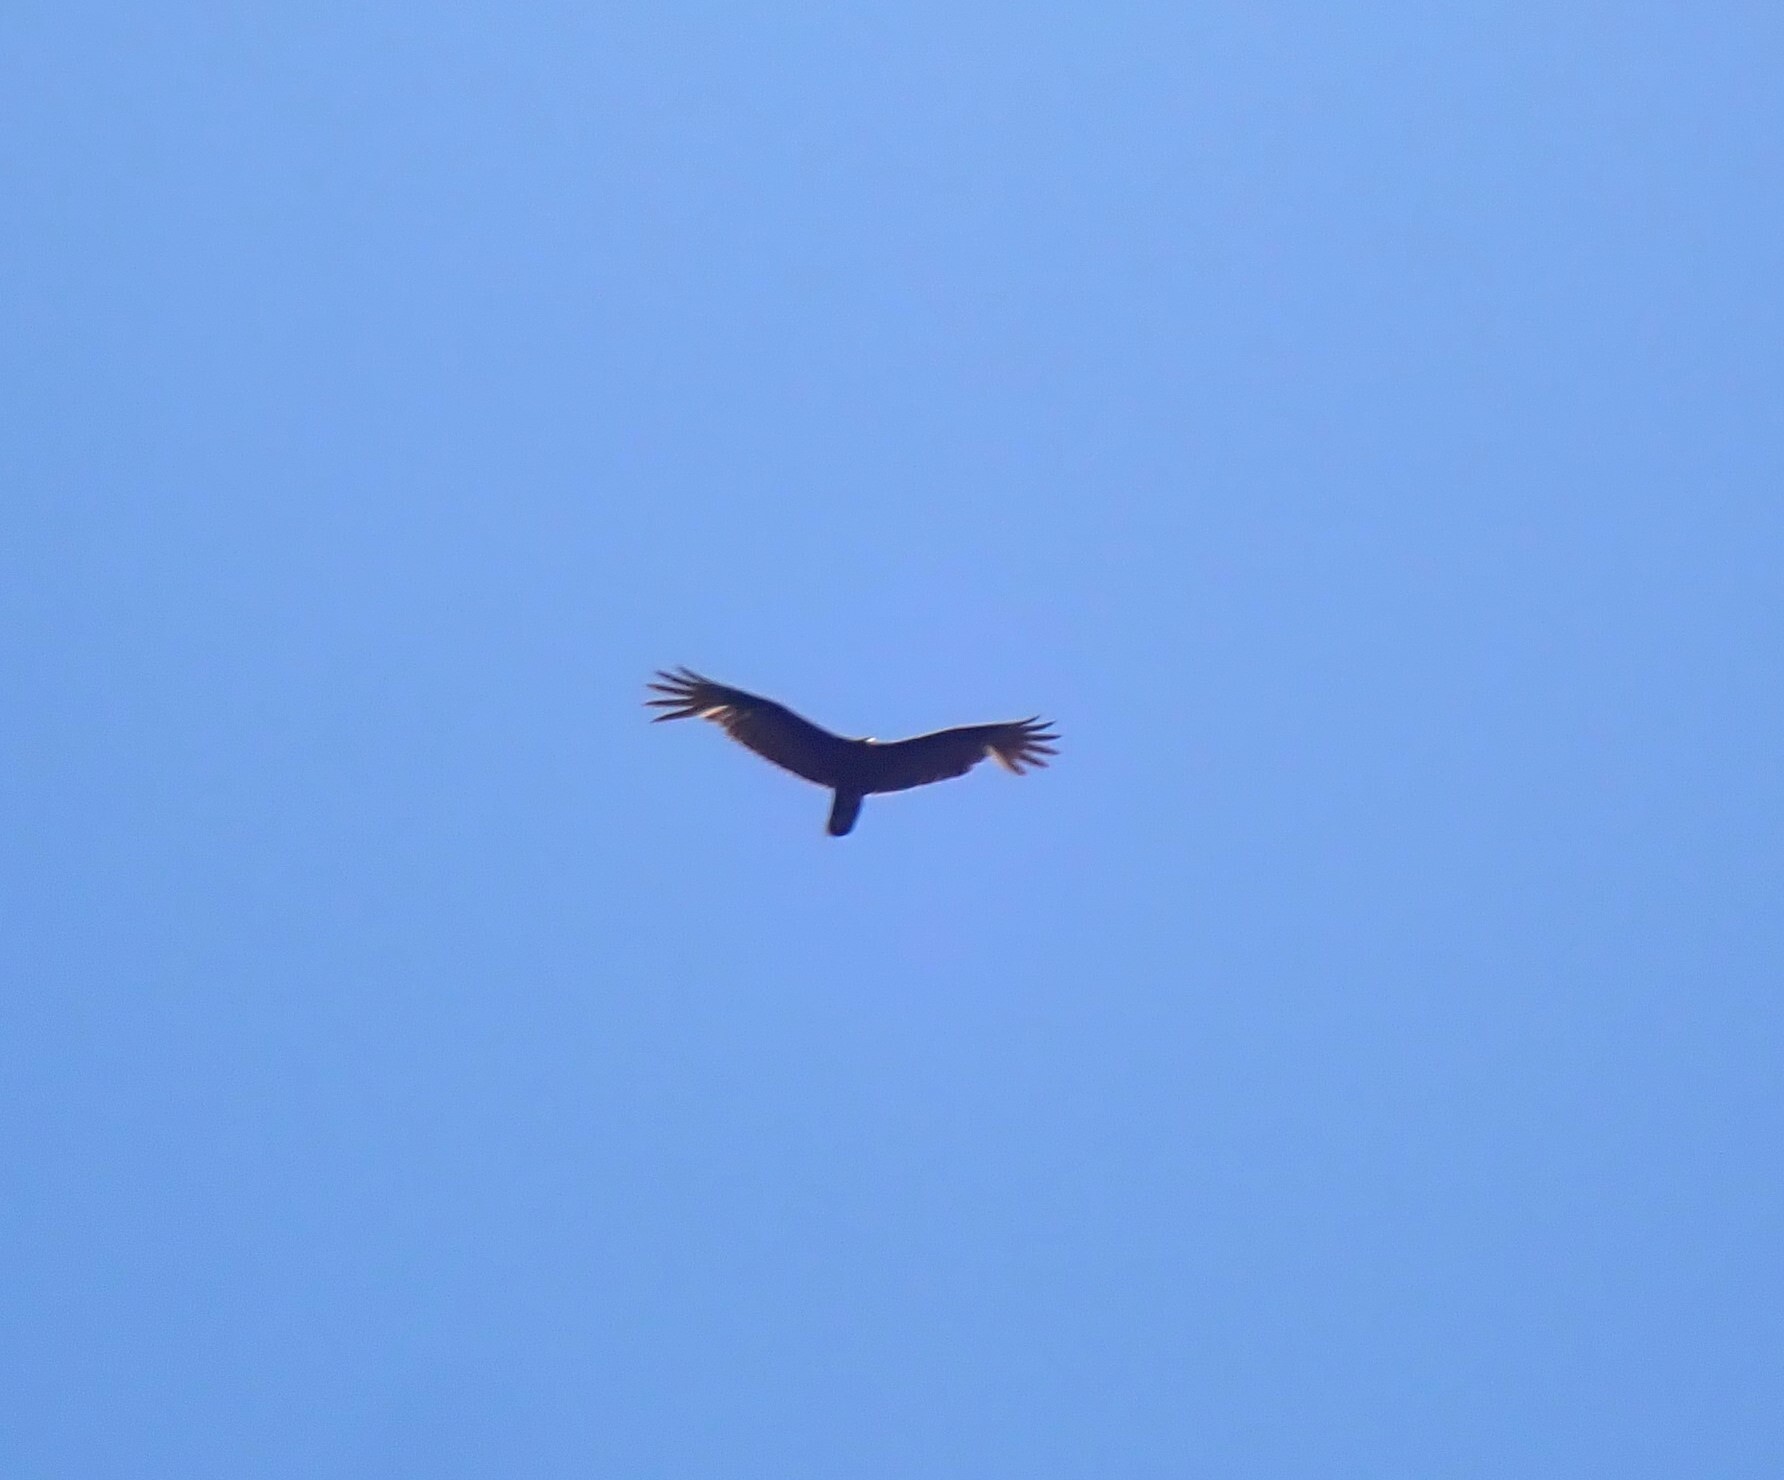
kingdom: Animalia
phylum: Chordata
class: Aves
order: Accipitriformes
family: Cathartidae
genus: Cathartes
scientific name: Cathartes aura
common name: Turkey vulture
